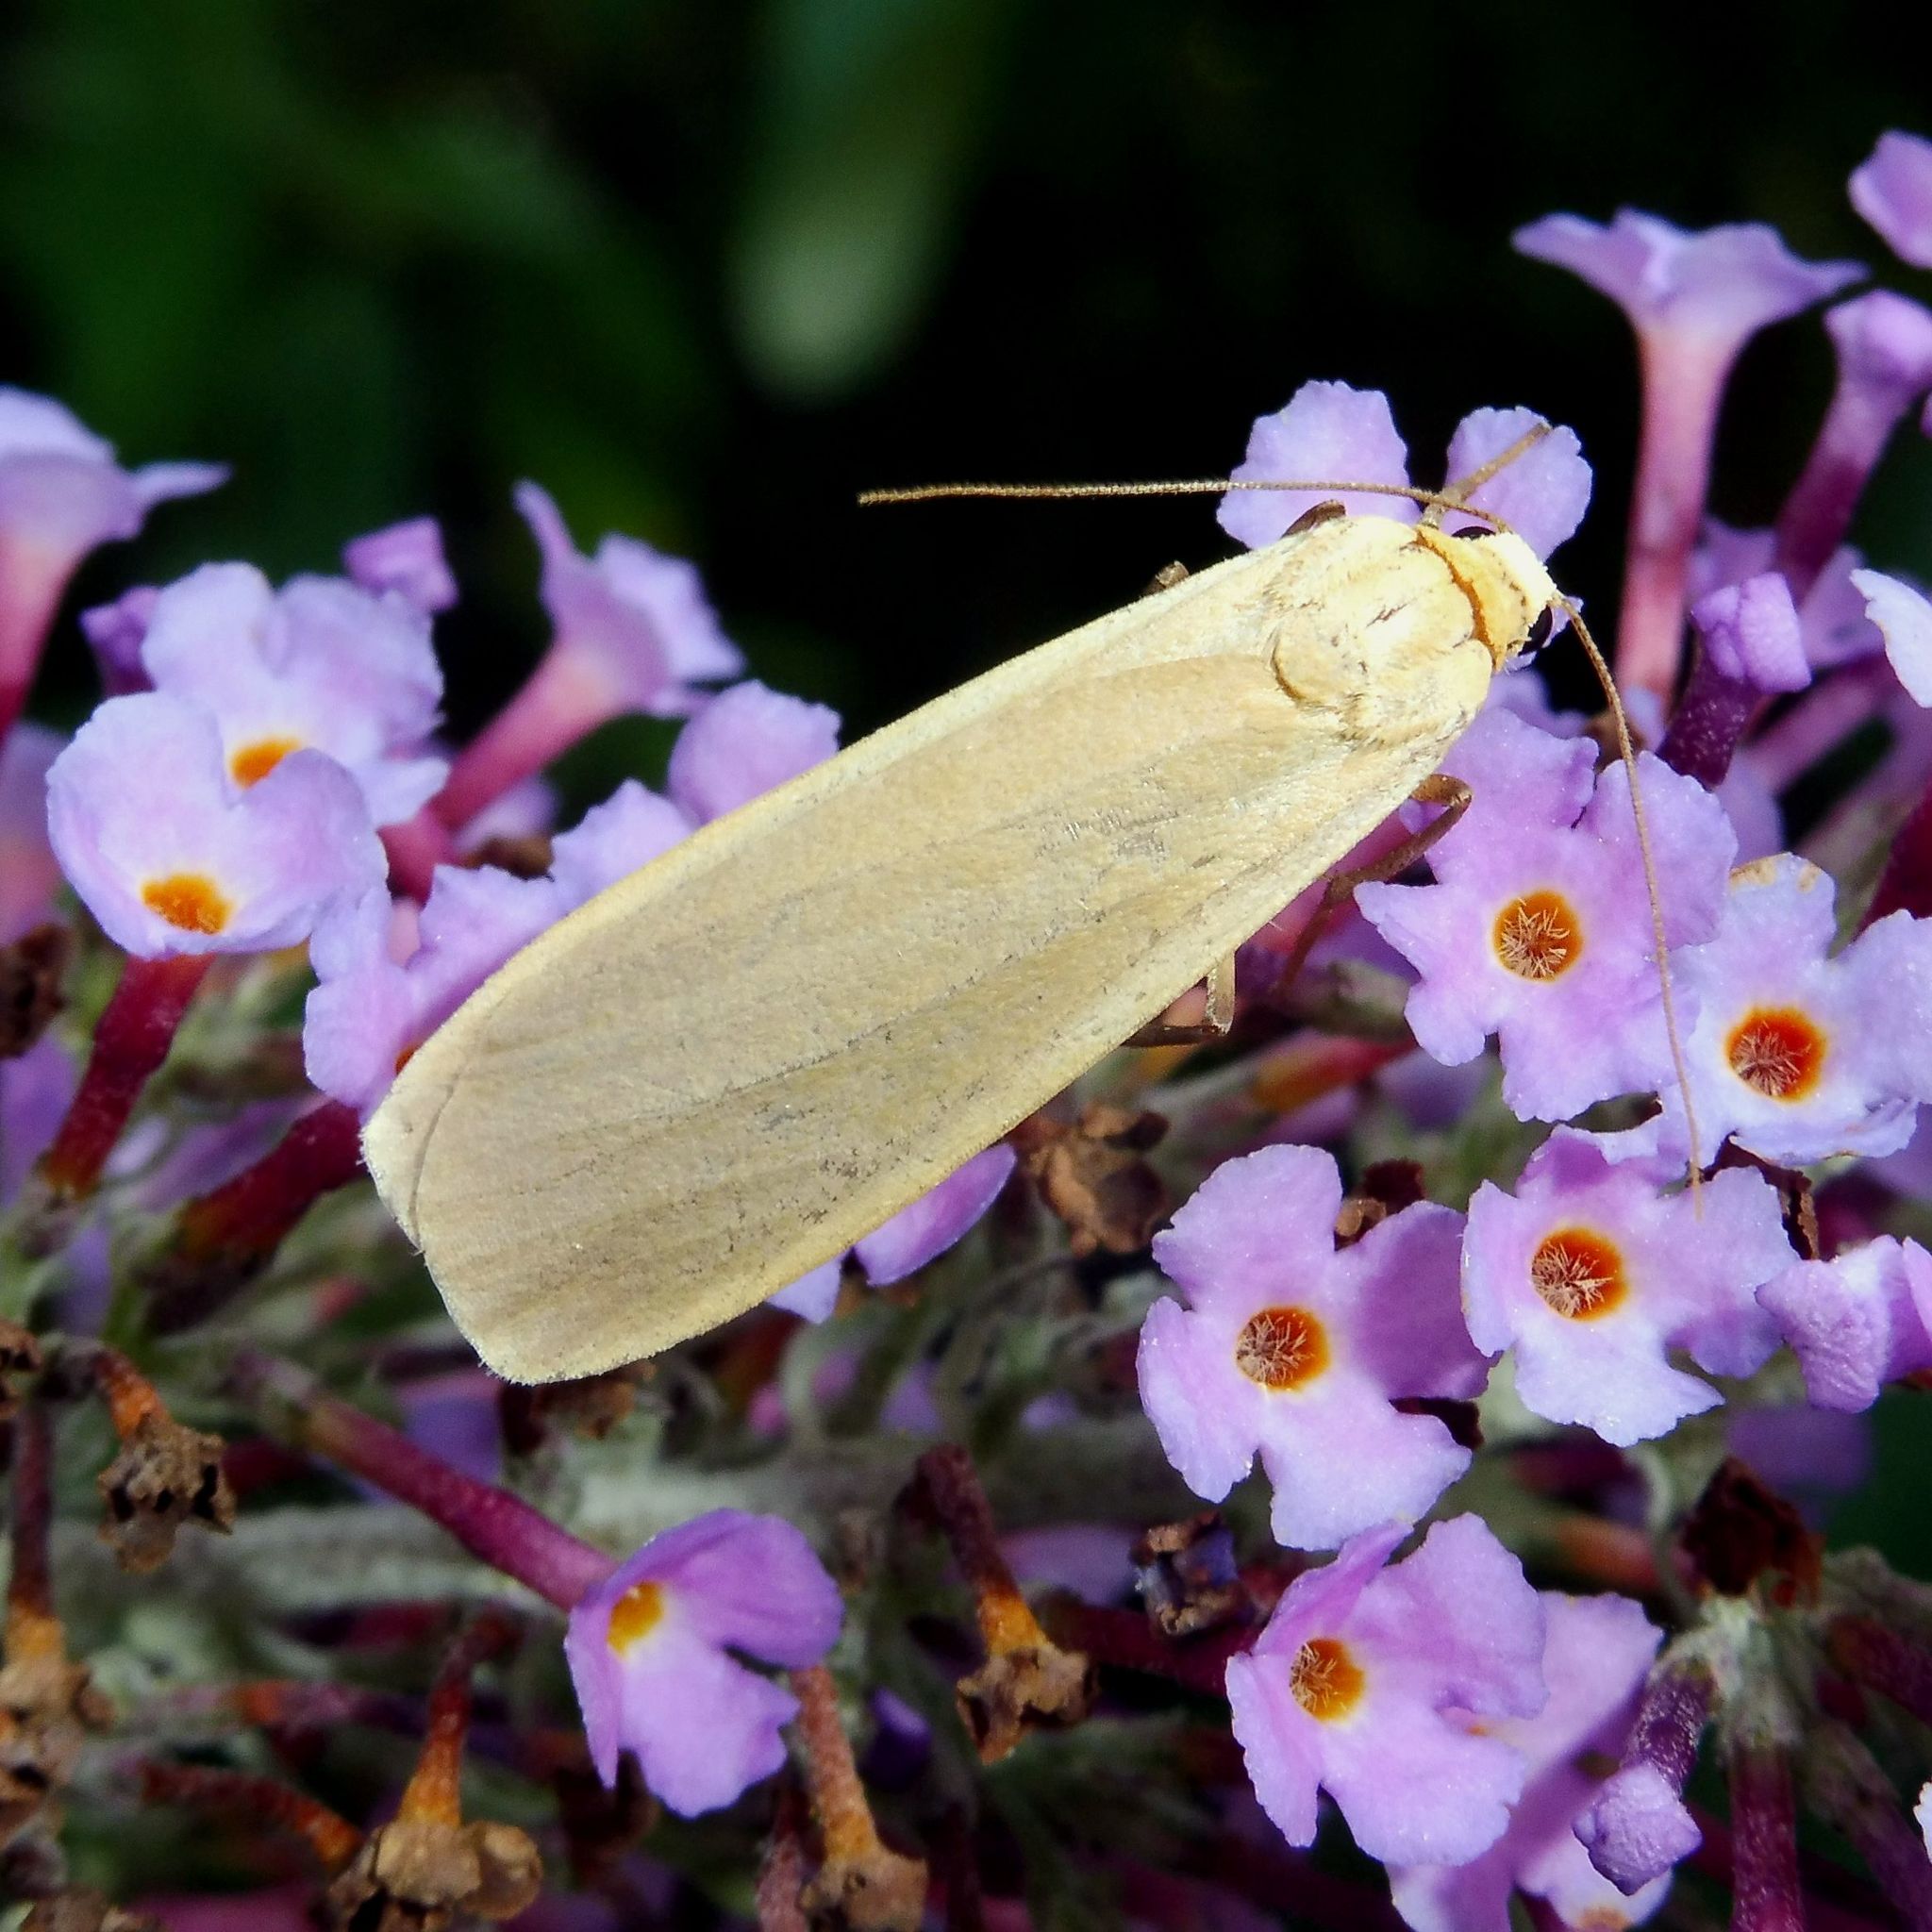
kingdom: Animalia
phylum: Arthropoda
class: Insecta
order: Lepidoptera
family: Erebidae
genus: Katha
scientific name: Katha depressa
